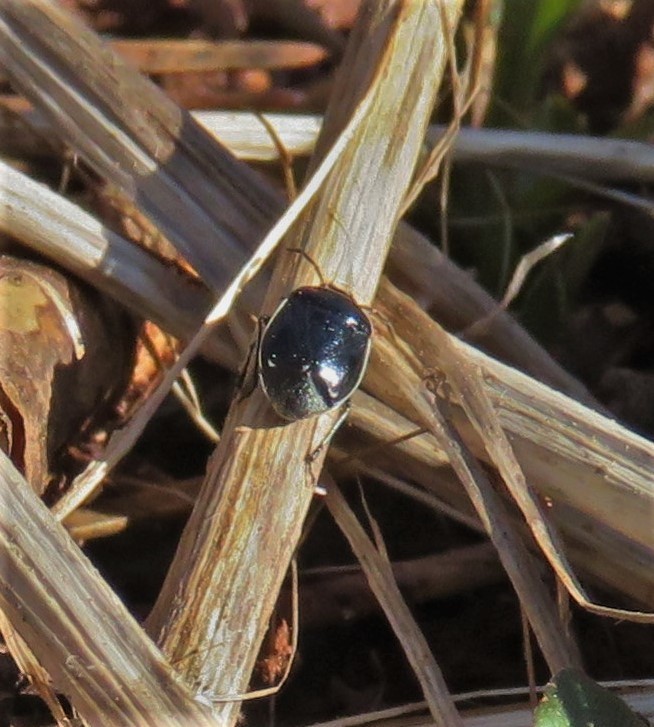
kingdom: Animalia
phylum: Arthropoda
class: Insecta
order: Hemiptera
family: Cydnidae
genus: Sehirus
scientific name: Sehirus cinctus
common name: White-margined burrower bug
